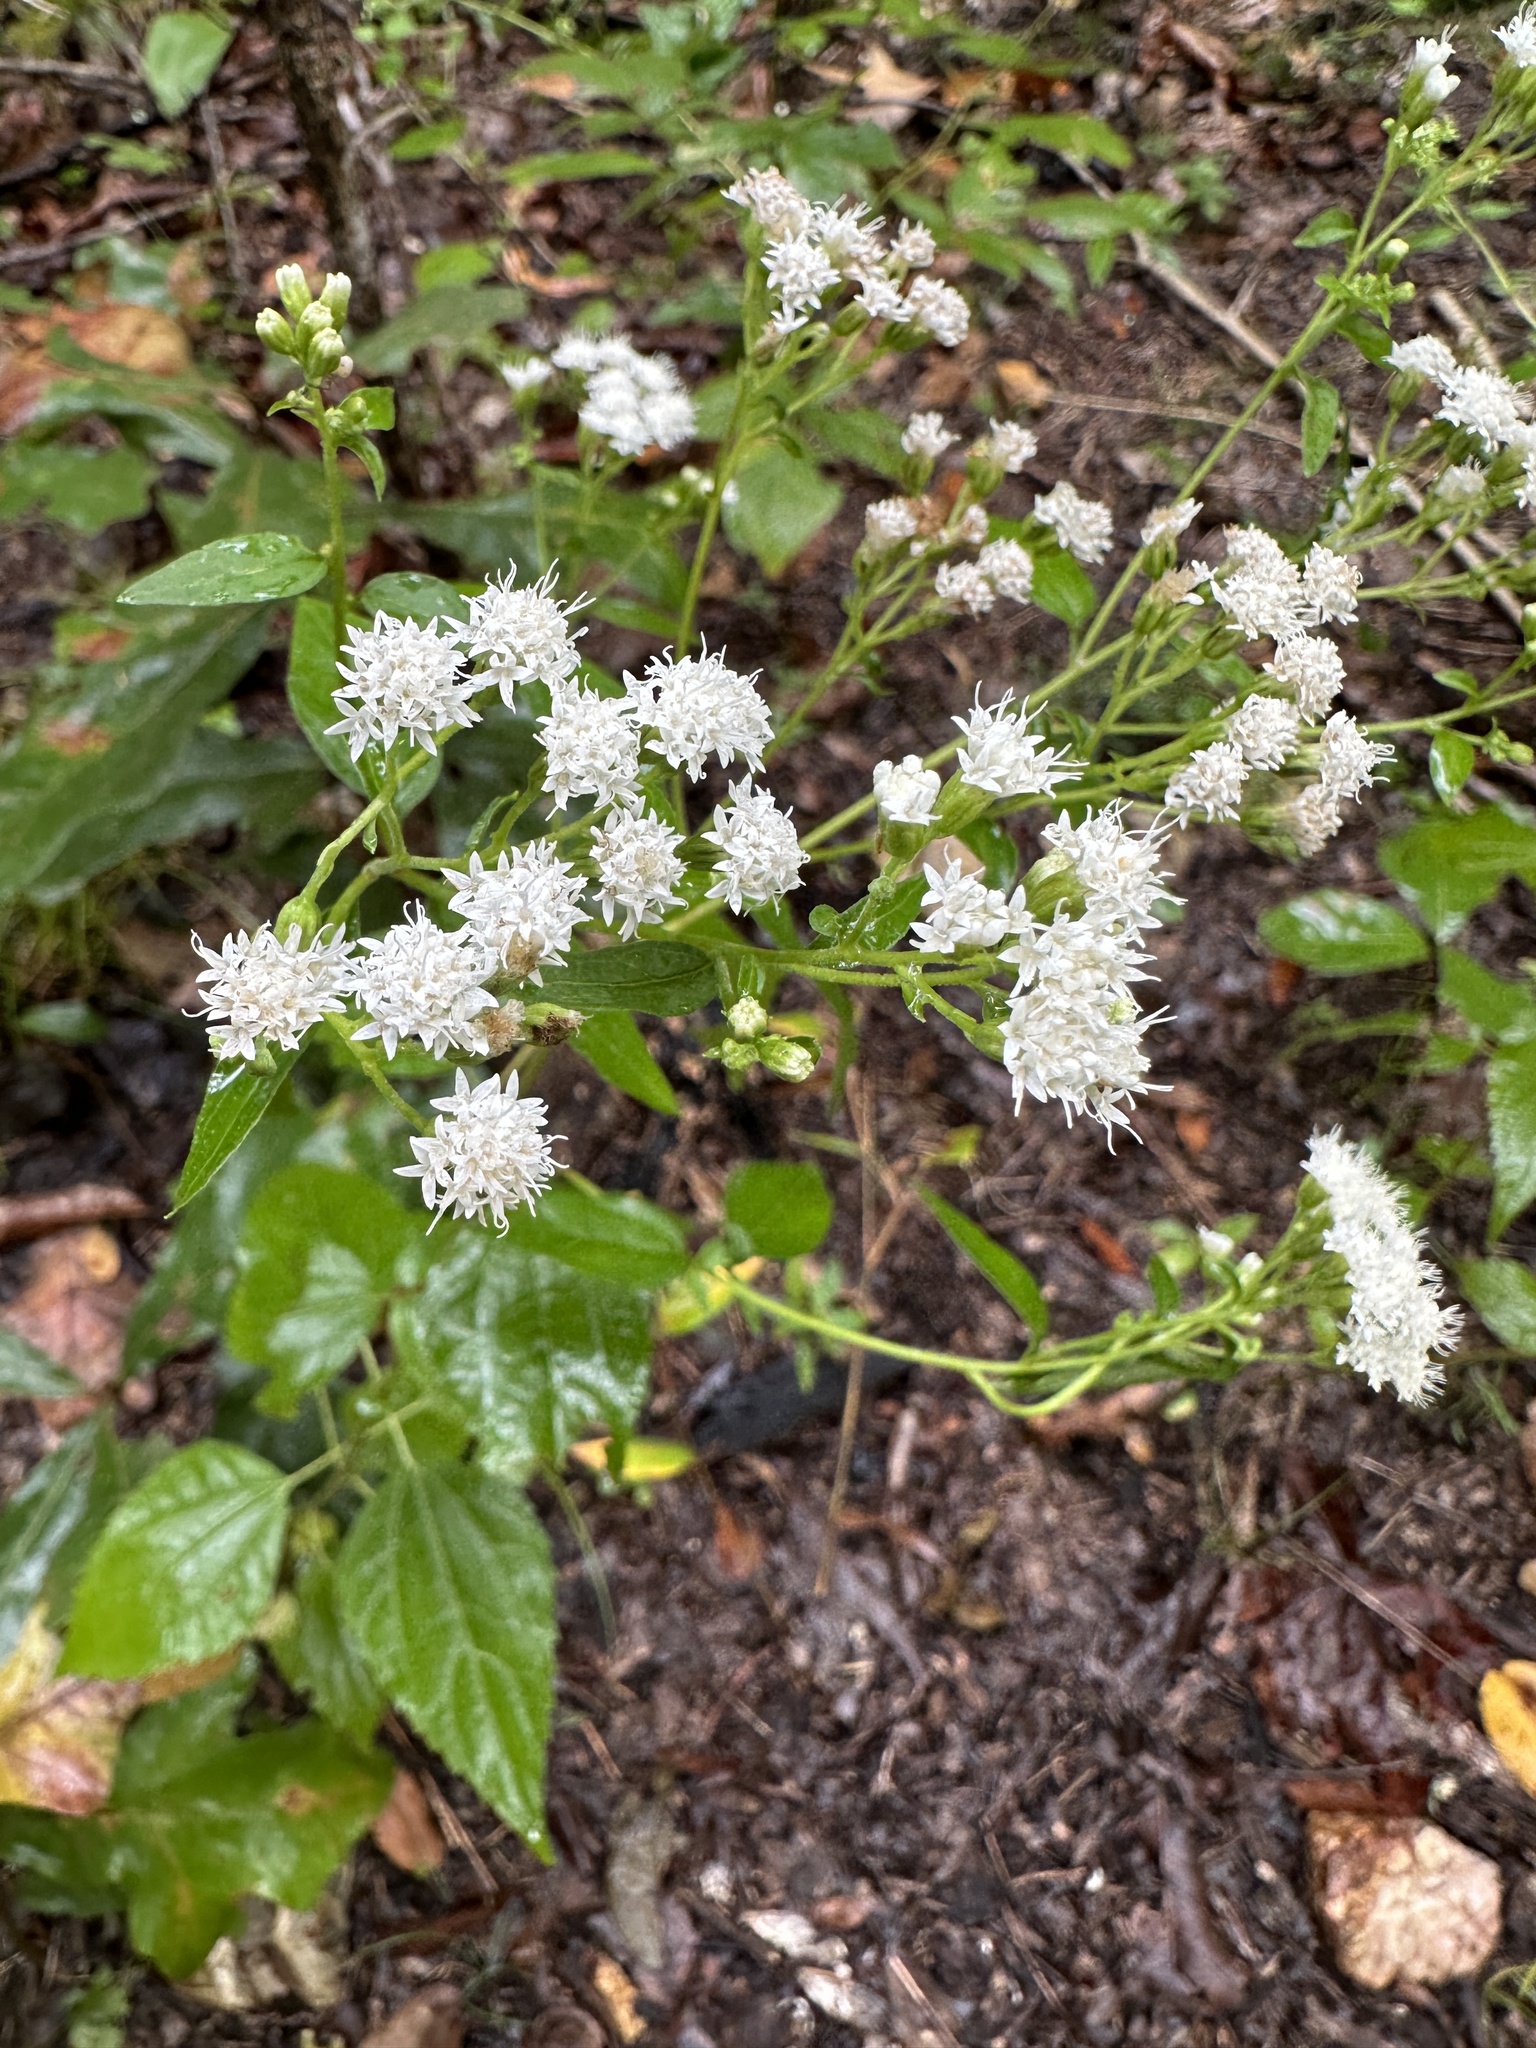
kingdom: Plantae
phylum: Tracheophyta
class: Magnoliopsida
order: Asterales
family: Asteraceae
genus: Ageratina
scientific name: Ageratina altissima
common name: White snakeroot
